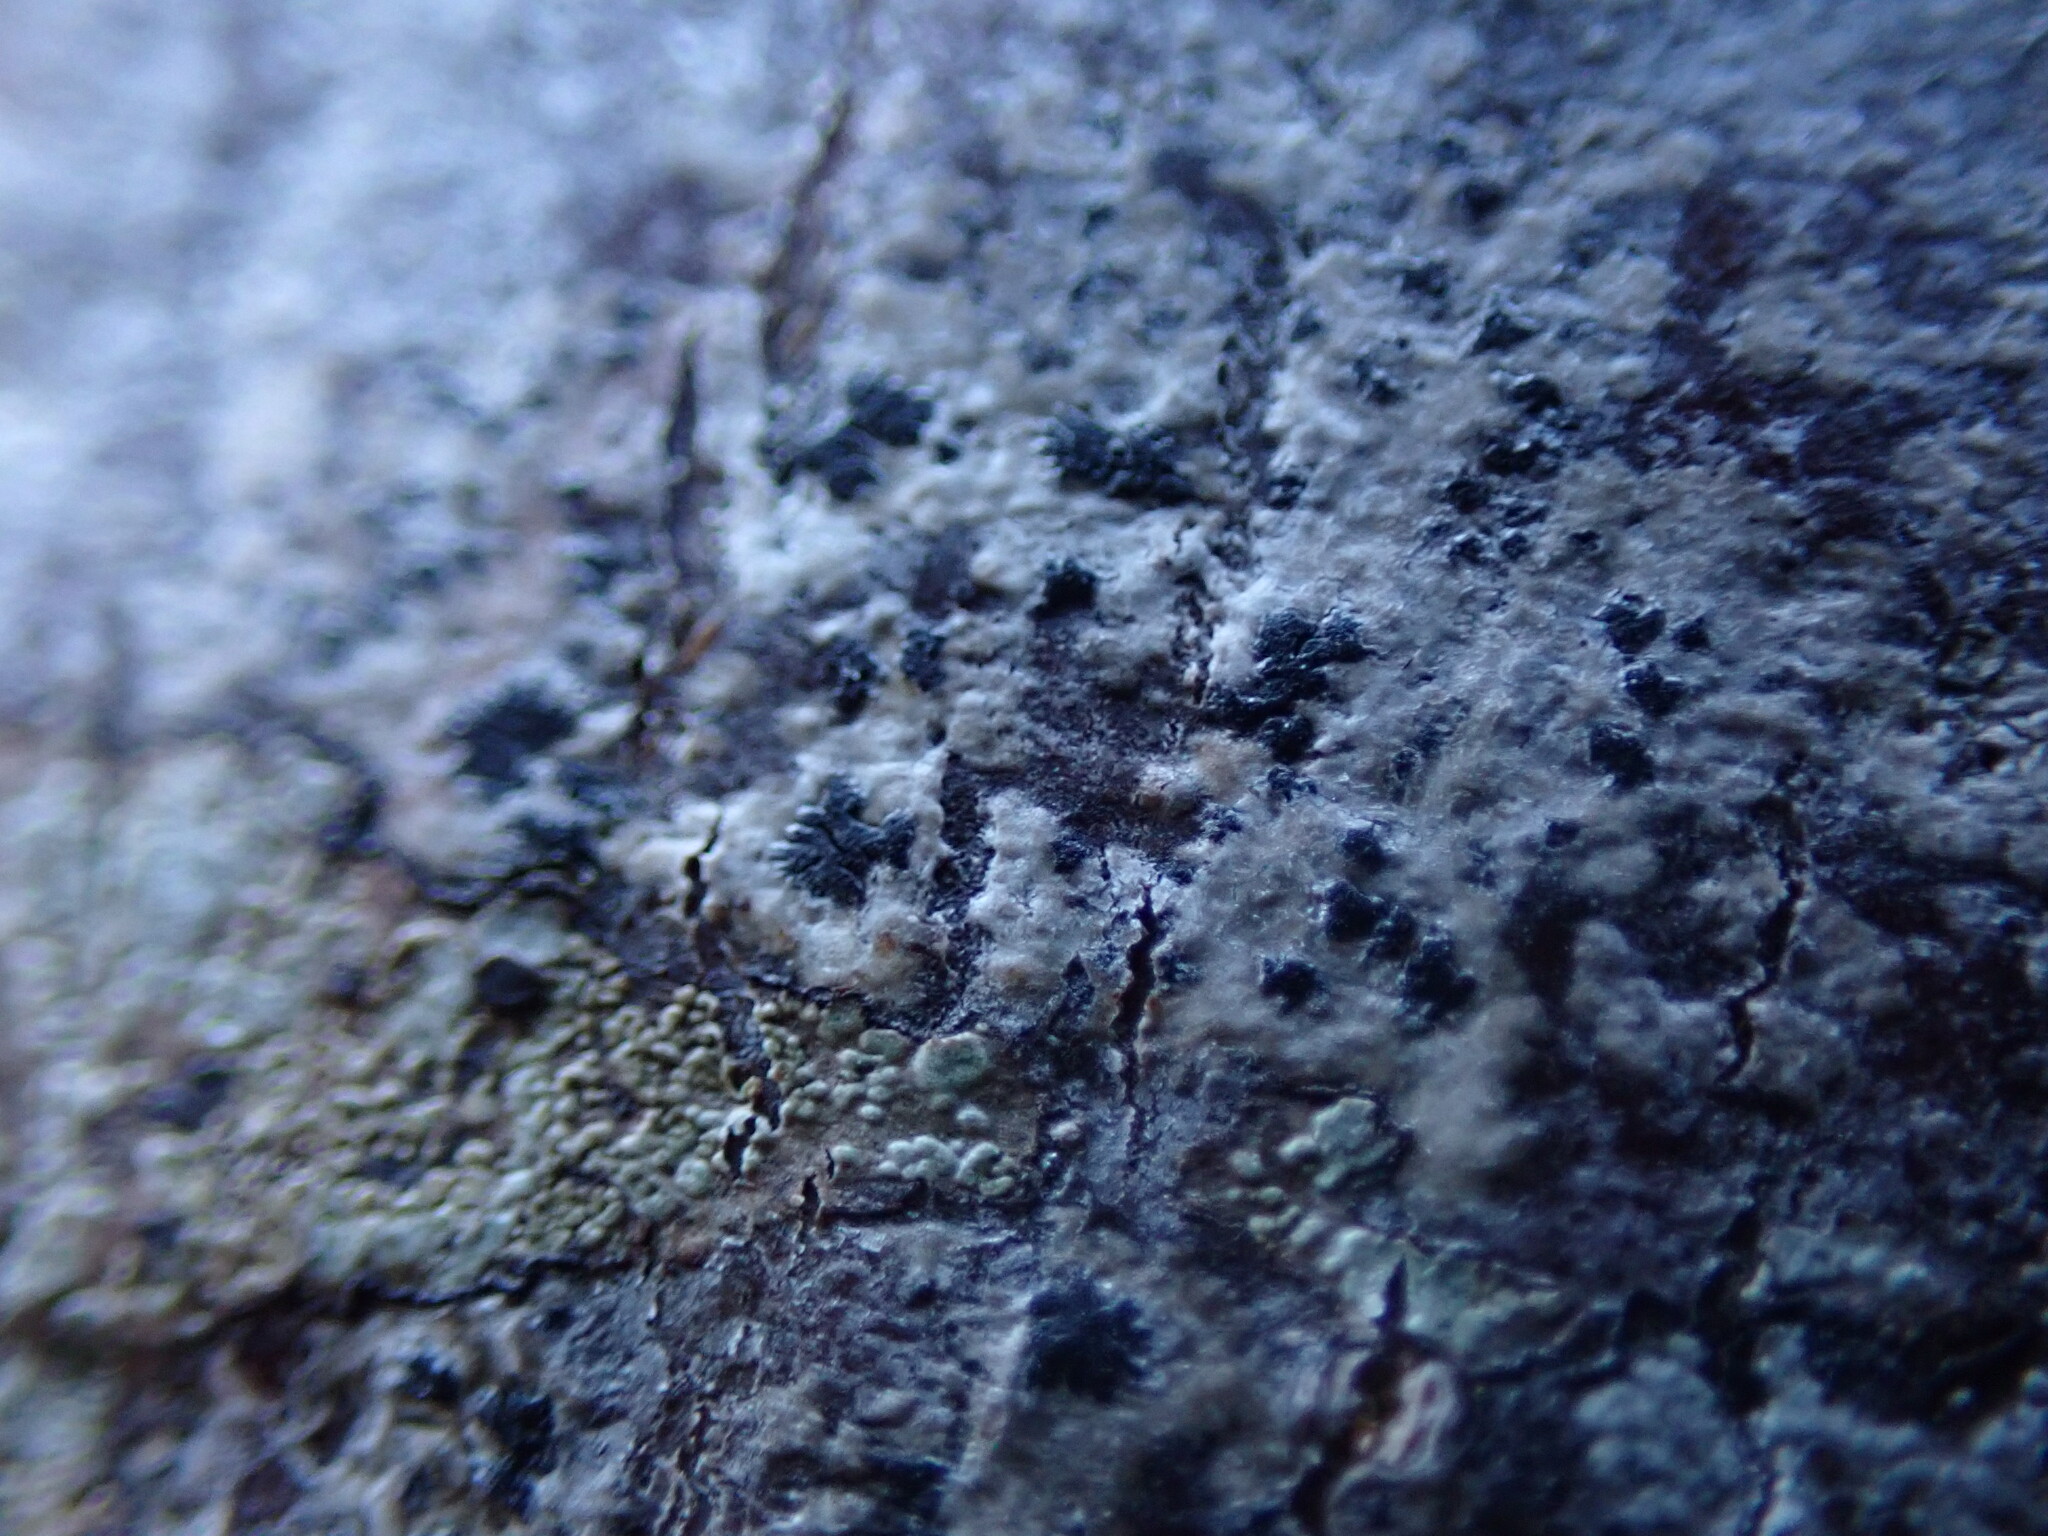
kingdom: Fungi
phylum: Ascomycota
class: Arthoniomycetes
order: Arthoniales
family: Arthoniaceae
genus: Arthonia
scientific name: Arthonia radiata
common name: Asterisk lichen
